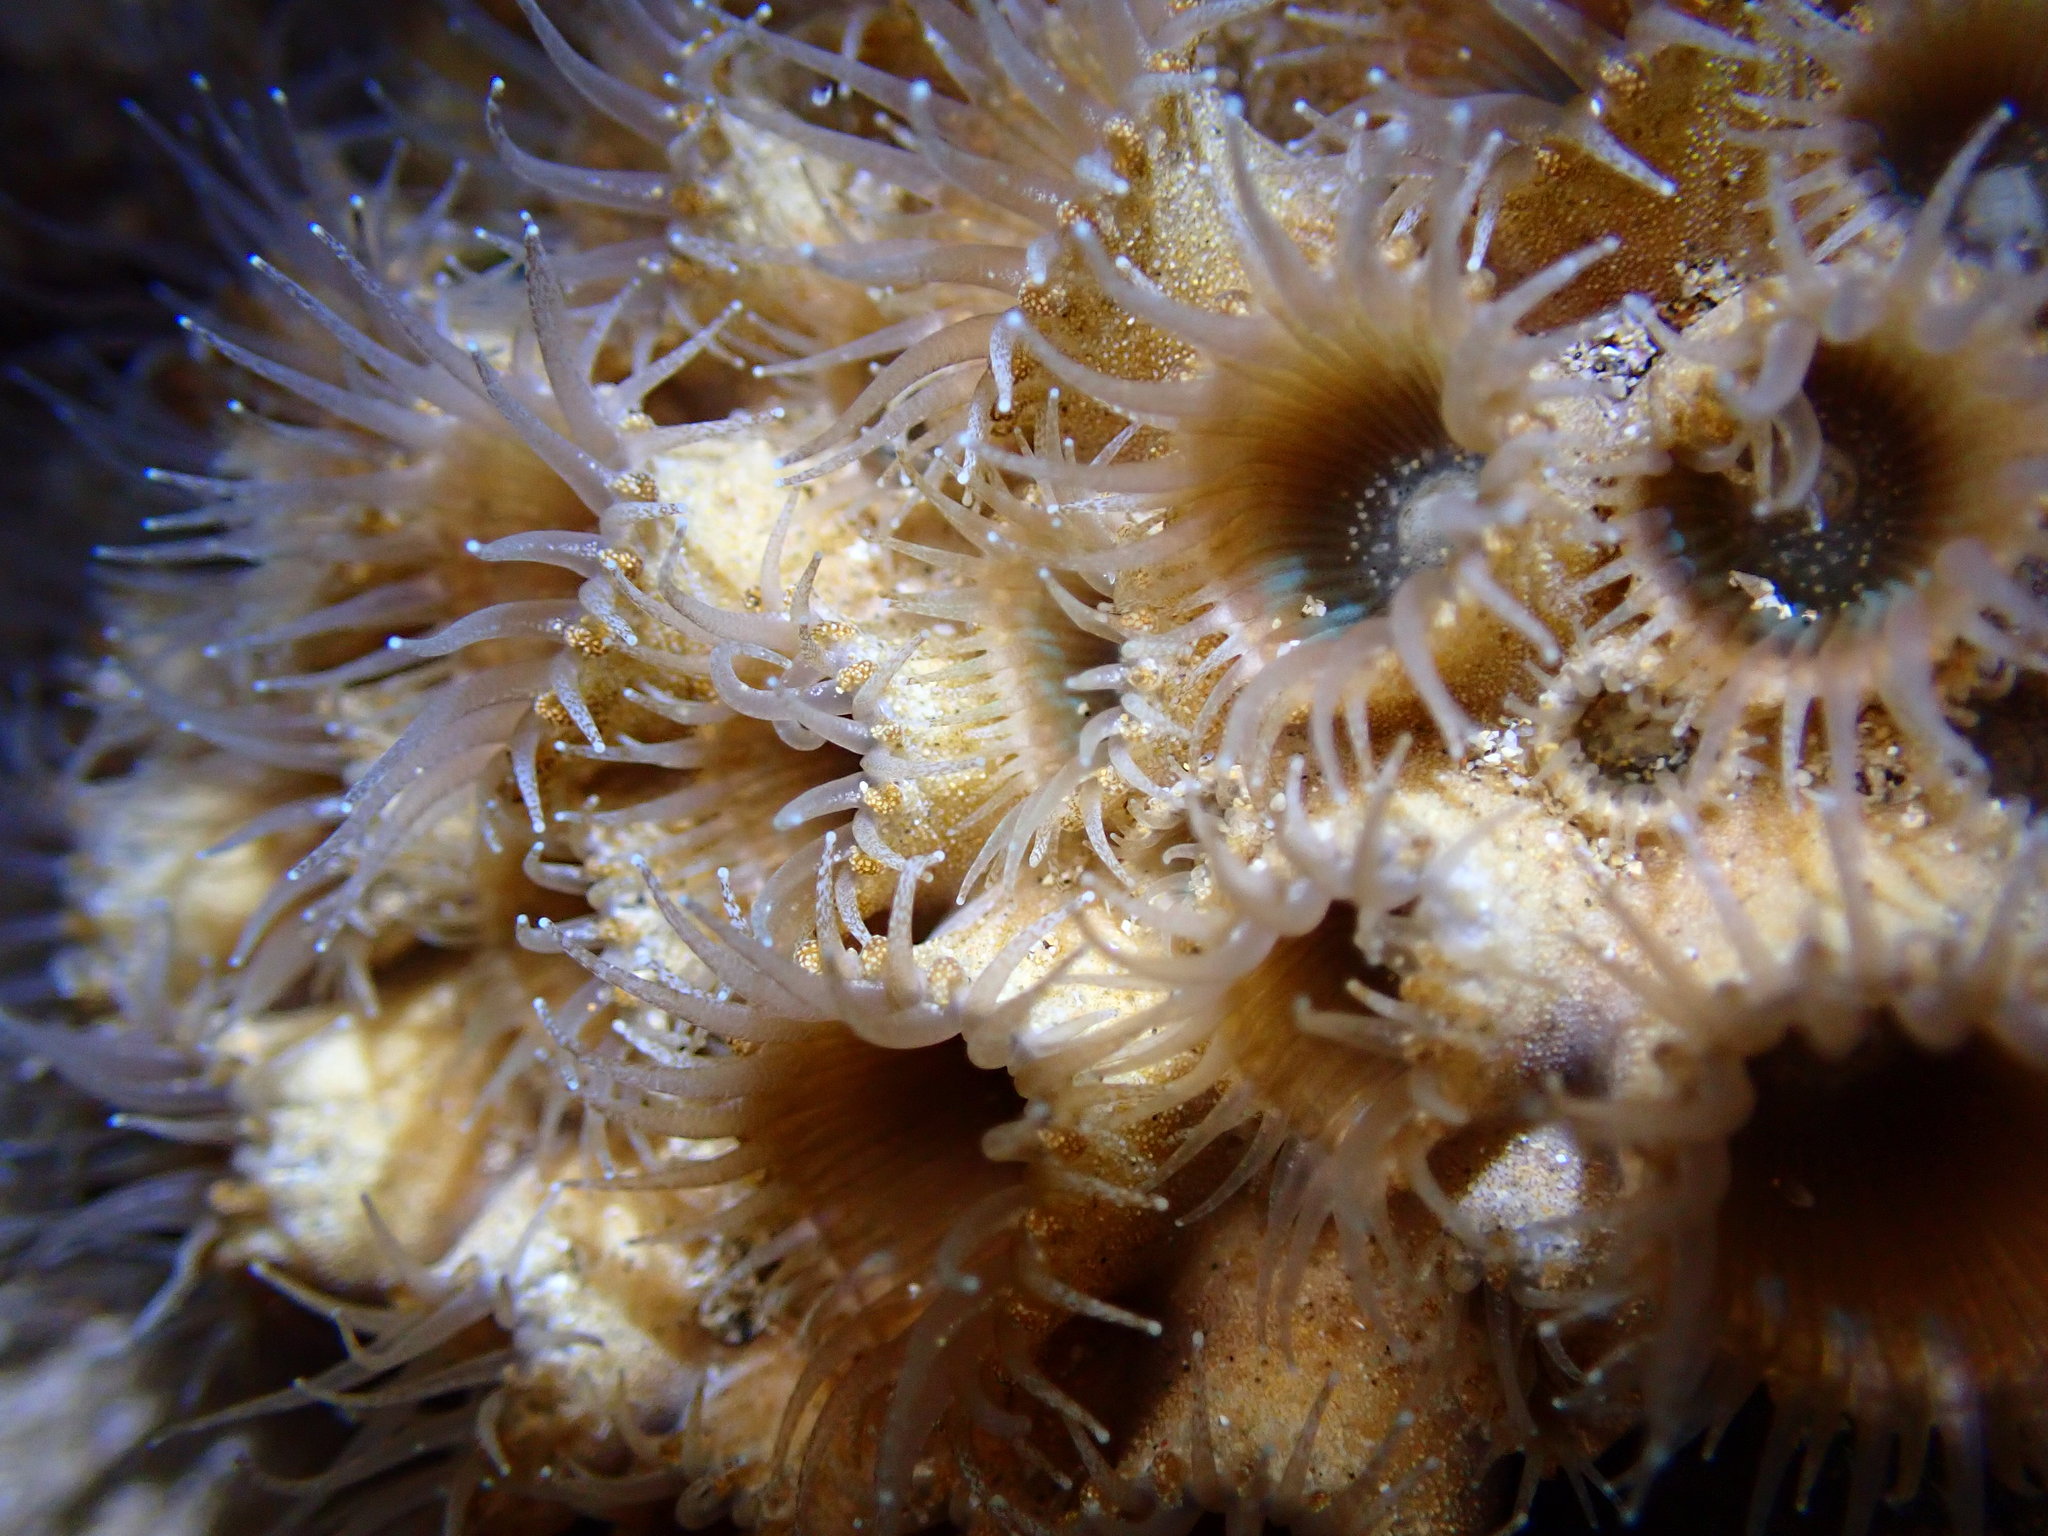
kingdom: Animalia
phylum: Cnidaria
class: Anthozoa
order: Zoantharia
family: Sphenopidae
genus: Palythoa
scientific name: Palythoa tuberculosa
